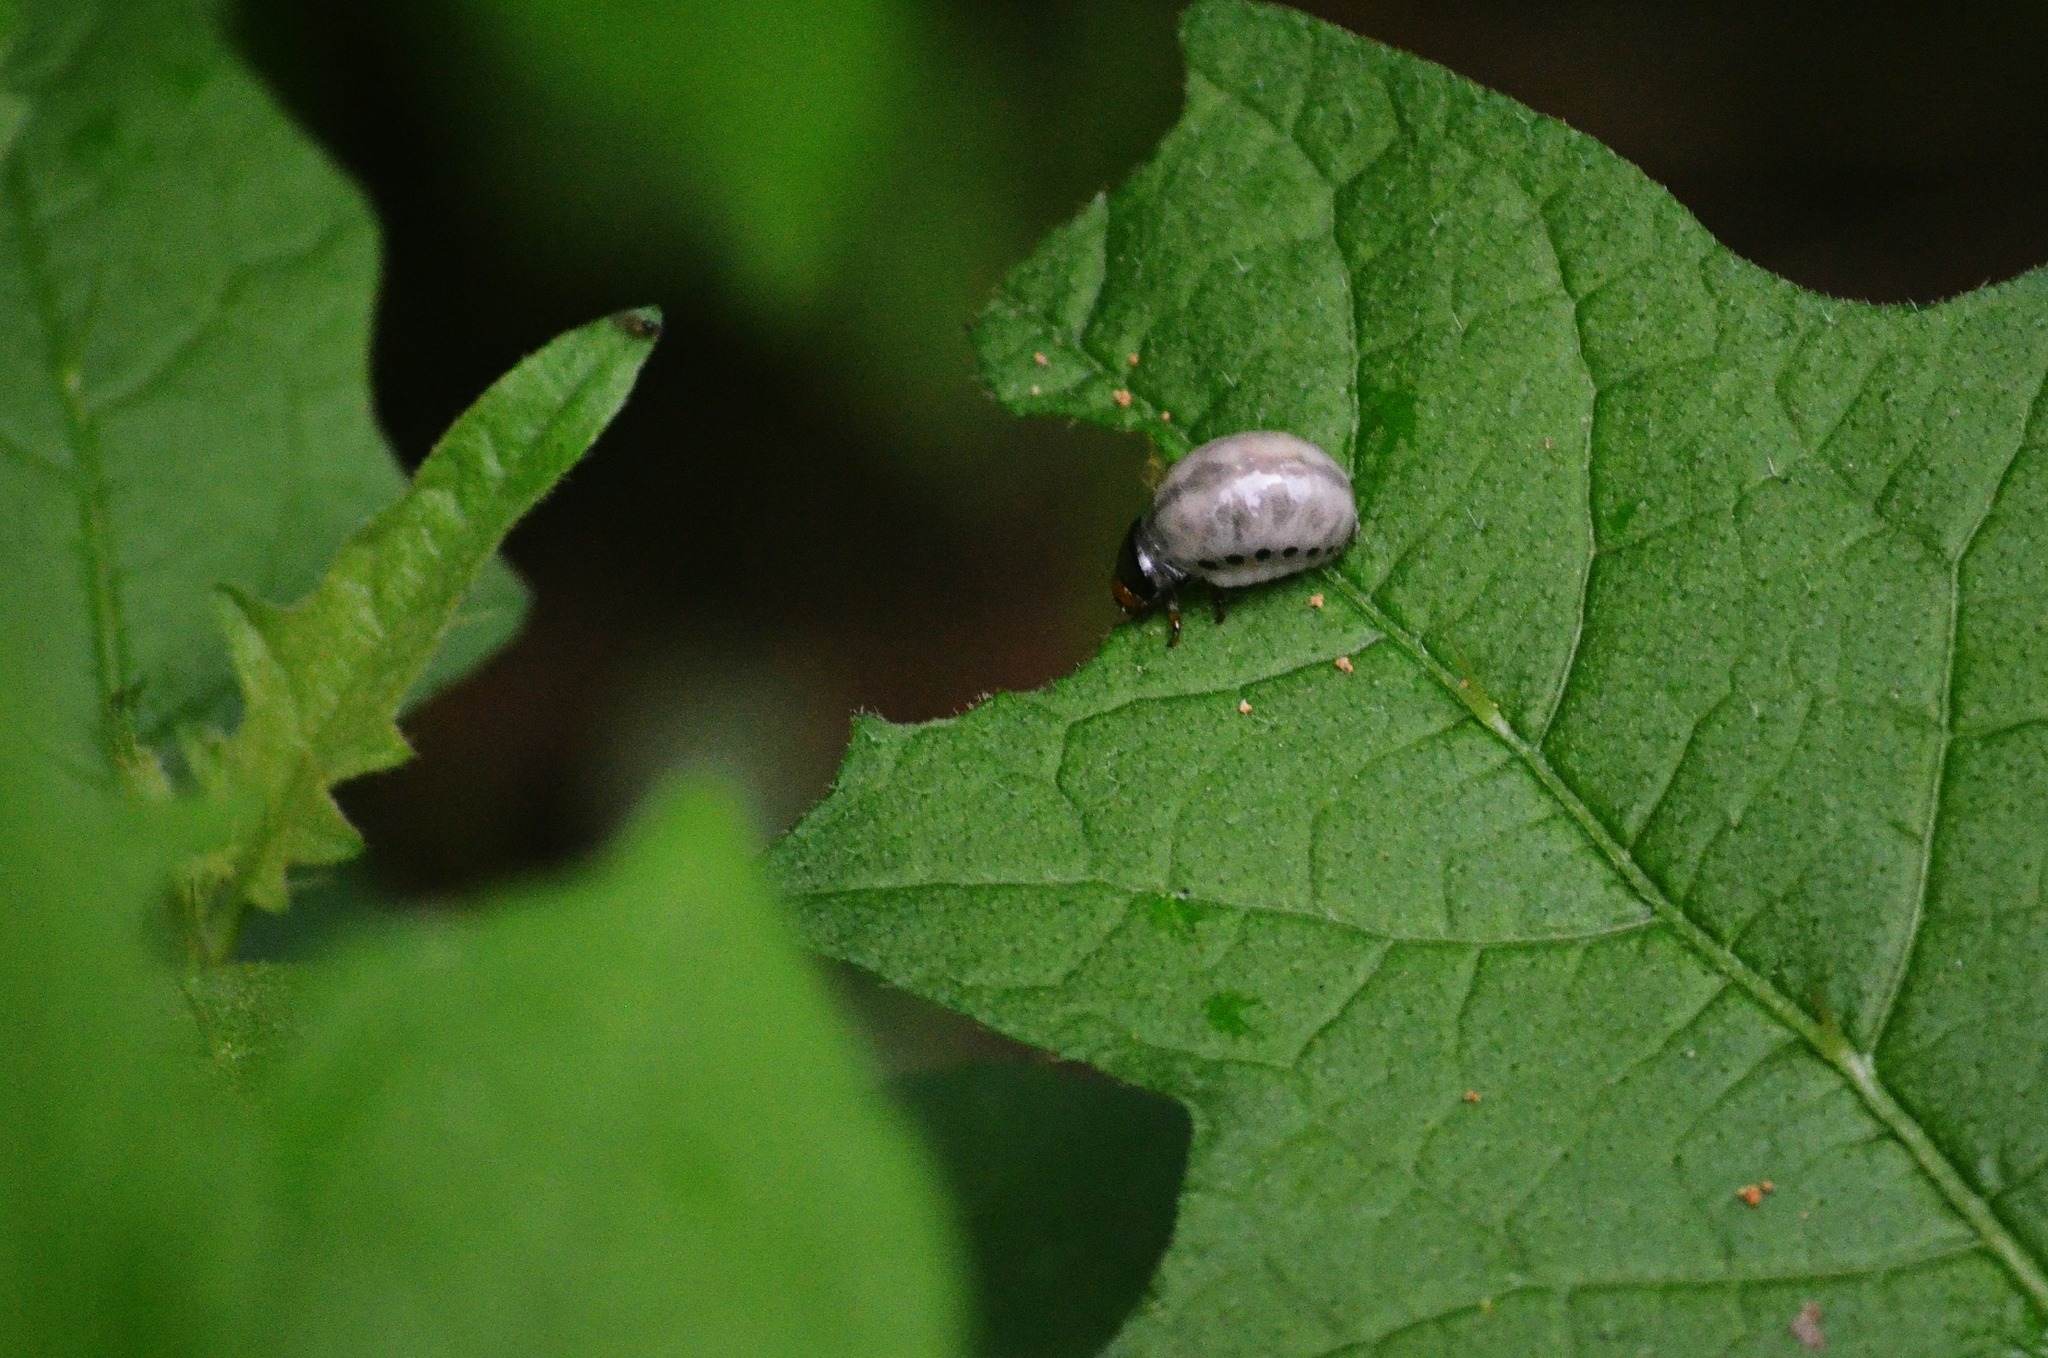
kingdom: Animalia
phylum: Arthropoda
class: Insecta
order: Coleoptera
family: Chrysomelidae
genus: Leptinotarsa
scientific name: Leptinotarsa juncta
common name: False potato beetle
